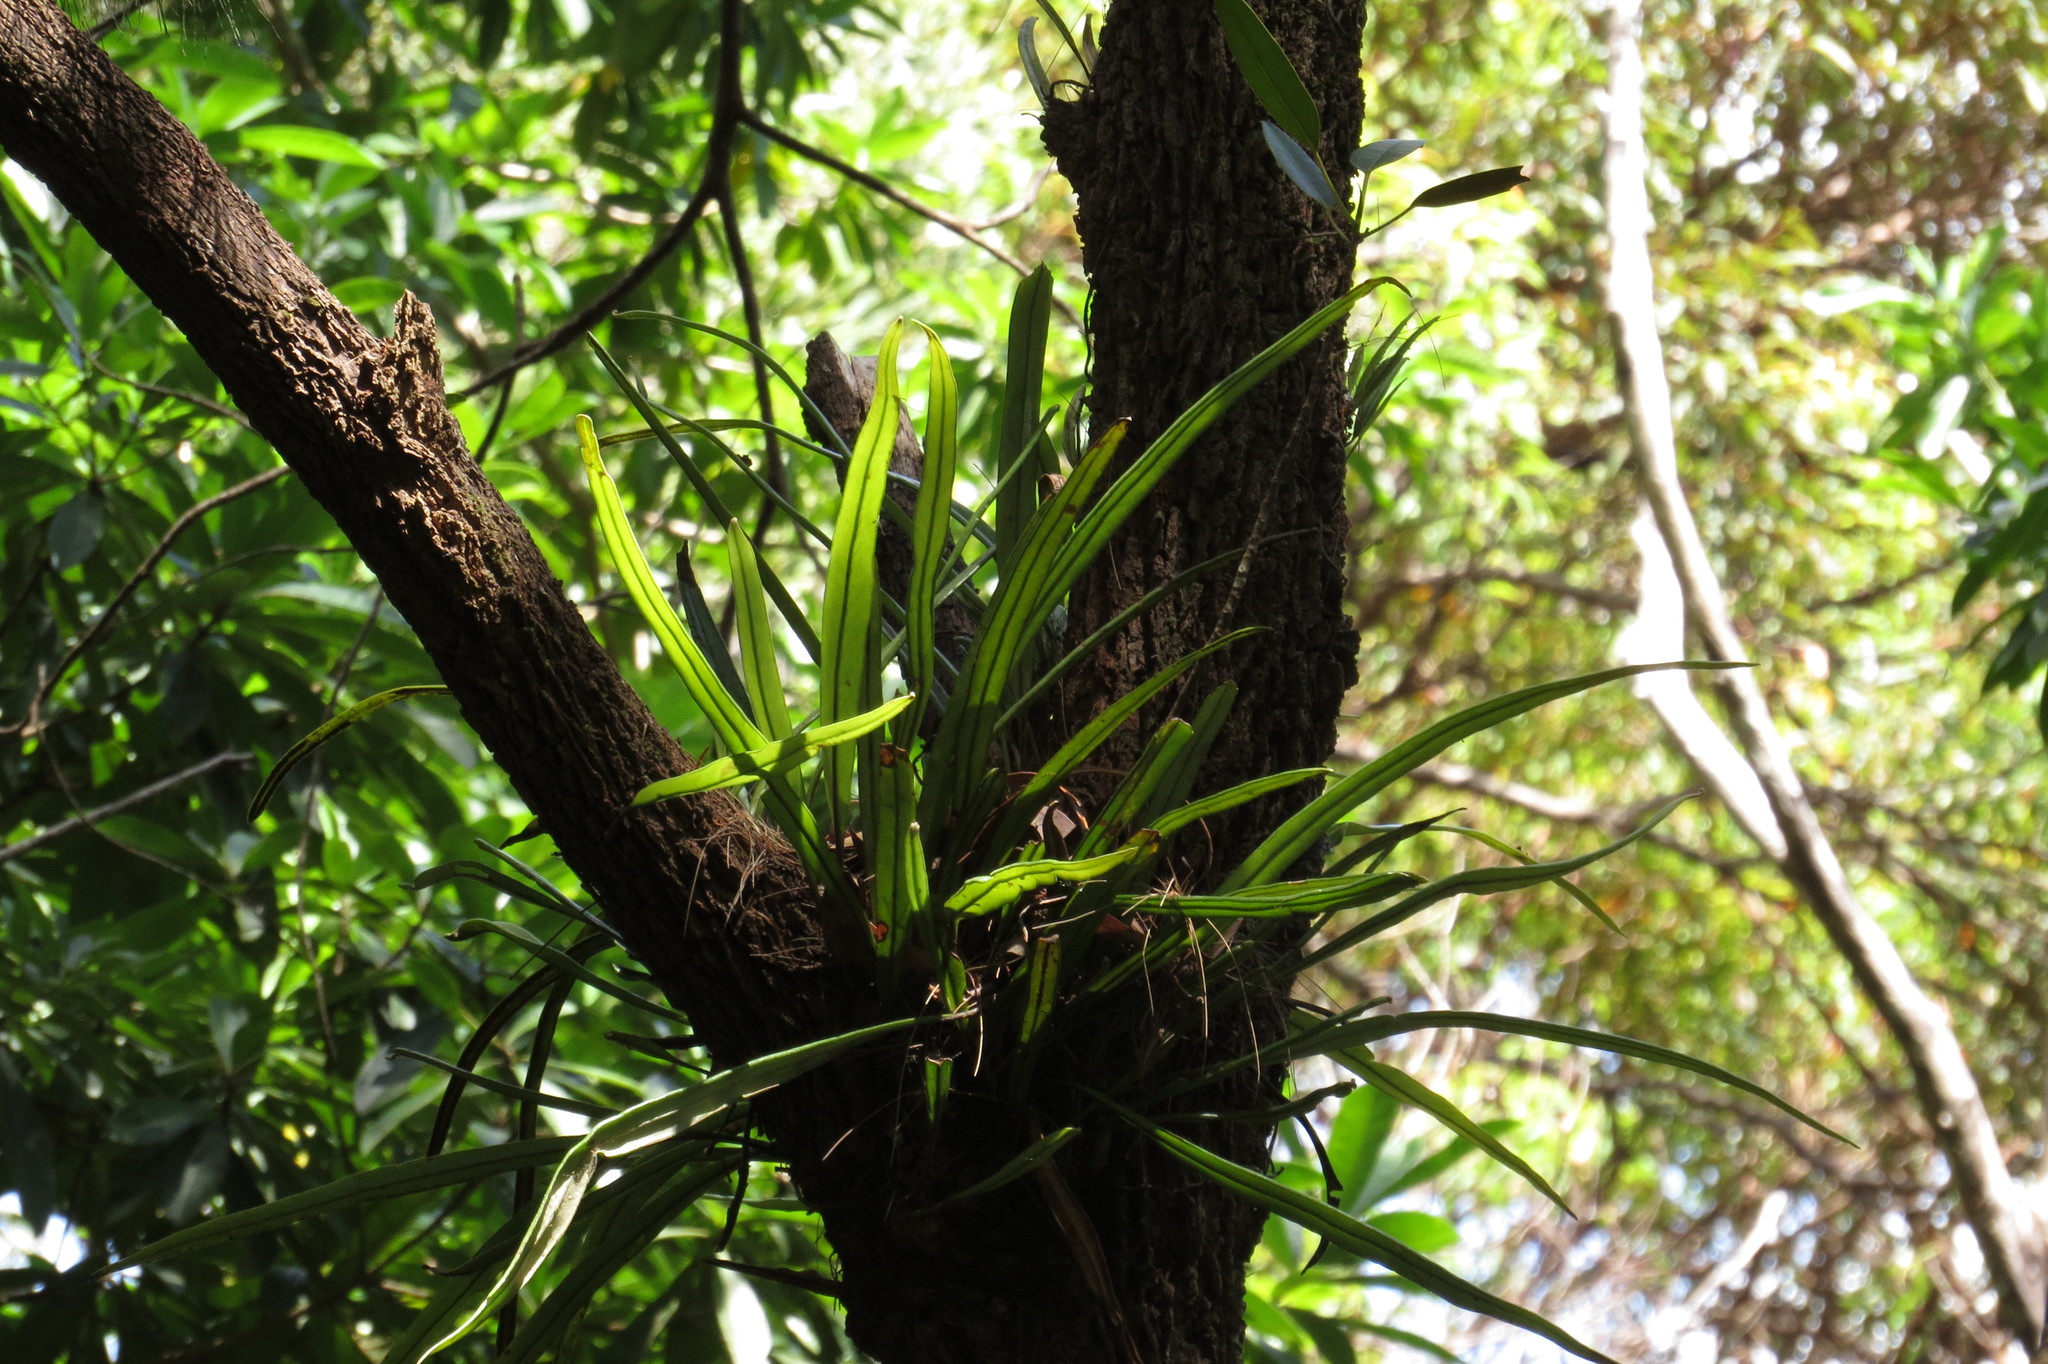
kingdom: Plantae
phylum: Tracheophyta
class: Polypodiopsida
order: Polypodiales
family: Polypodiaceae
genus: Pyrrosia
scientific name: Pyrrosia longifolia
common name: Long-leaved felt fern
